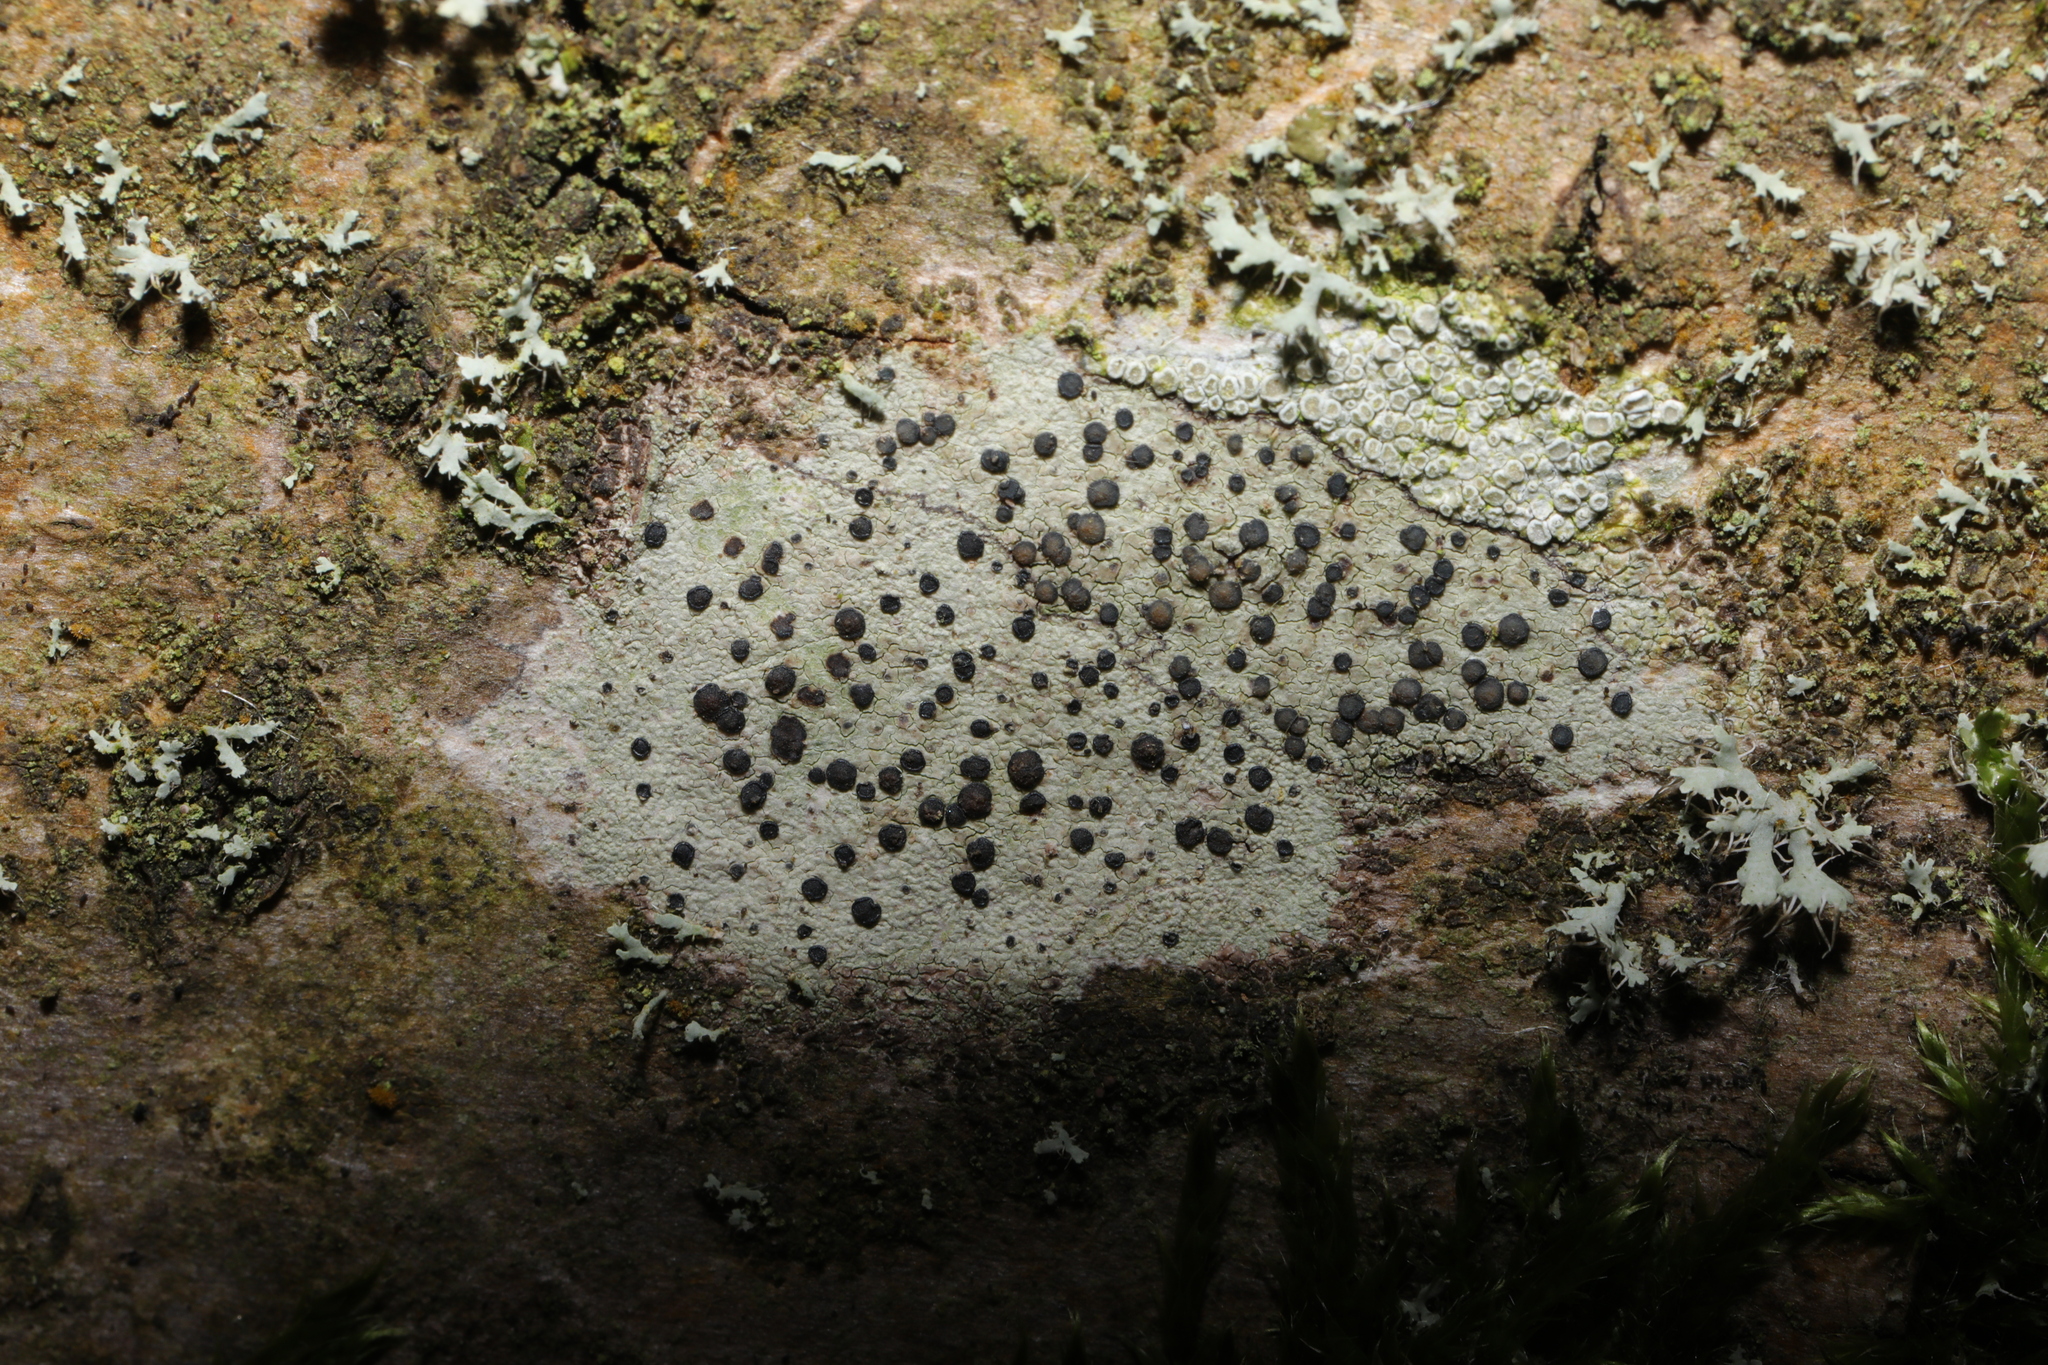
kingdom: Fungi
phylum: Ascomycota
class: Lecanoromycetes
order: Lecanorales
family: Lecanoraceae
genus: Lecidella
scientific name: Lecidella elaeochroma
